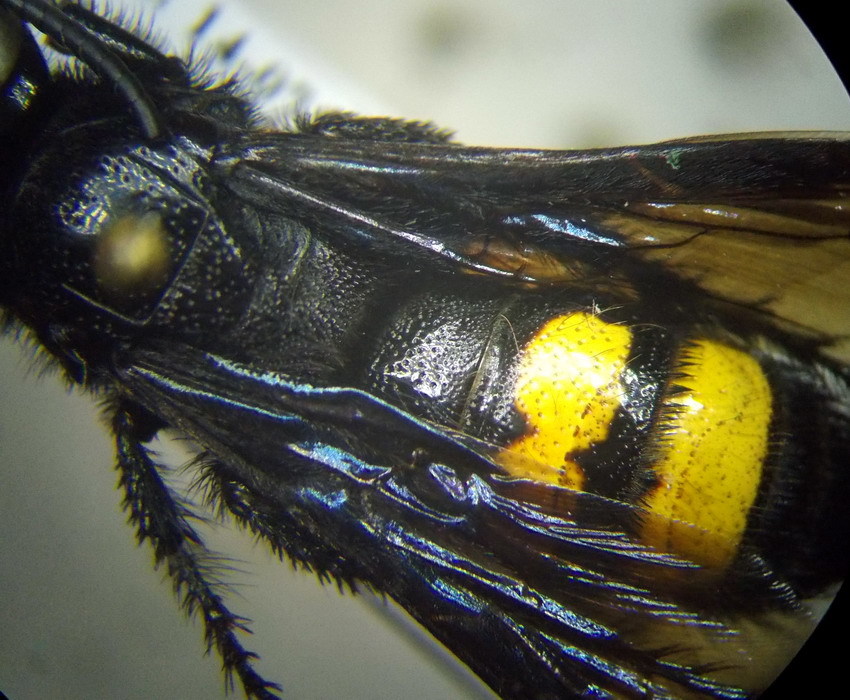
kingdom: Animalia
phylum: Arthropoda
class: Insecta
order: Hymenoptera
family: Scoliidae
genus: Scolia
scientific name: Scolia hirta
